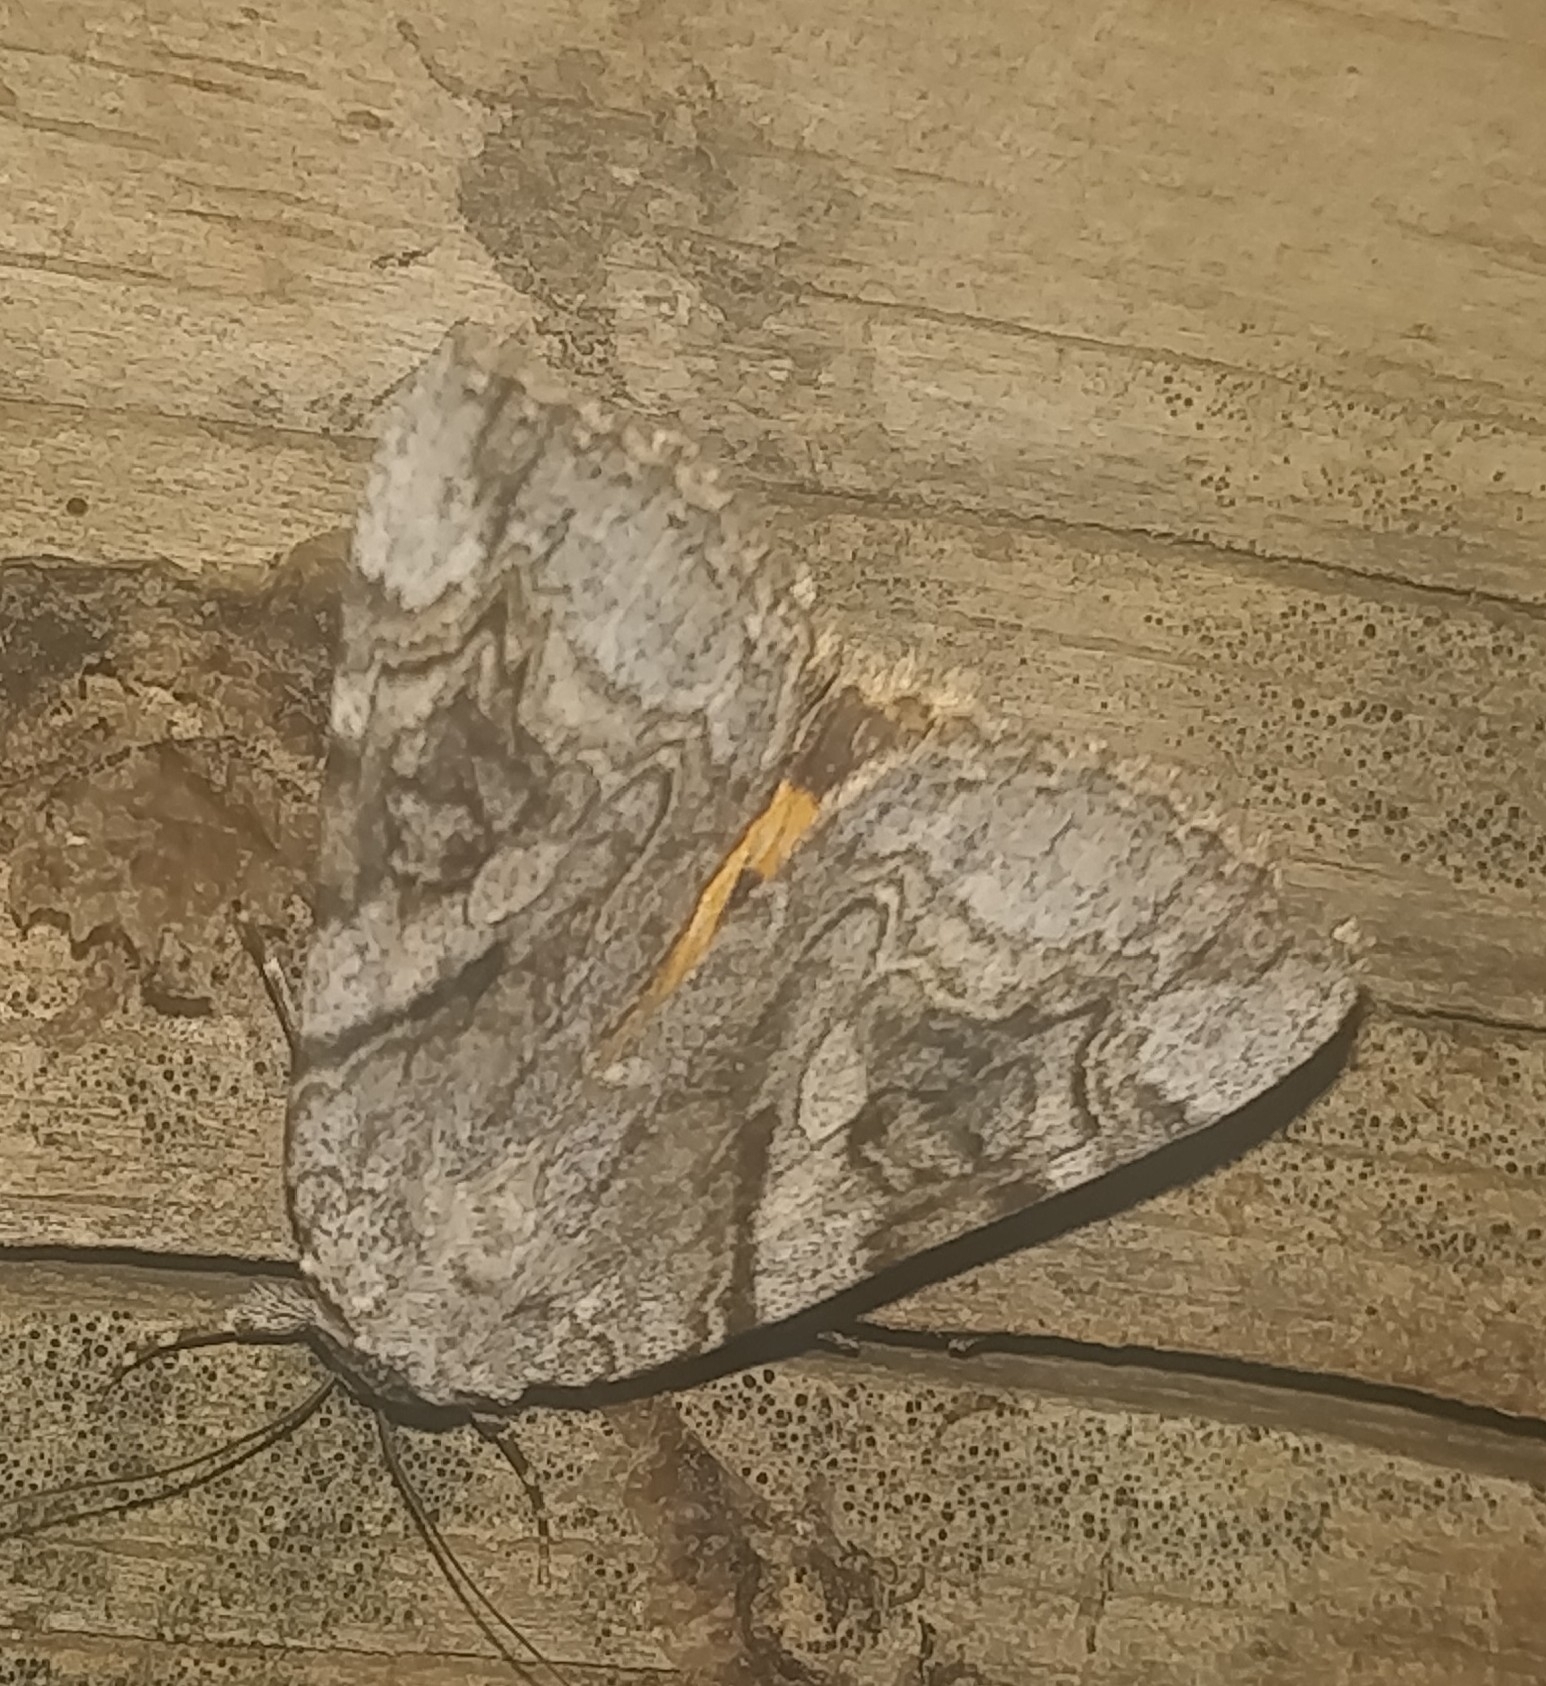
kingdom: Animalia
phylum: Arthropoda
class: Insecta
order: Lepidoptera
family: Erebidae
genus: Catocala
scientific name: Catocala amestris
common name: The leadplant underwing moth
